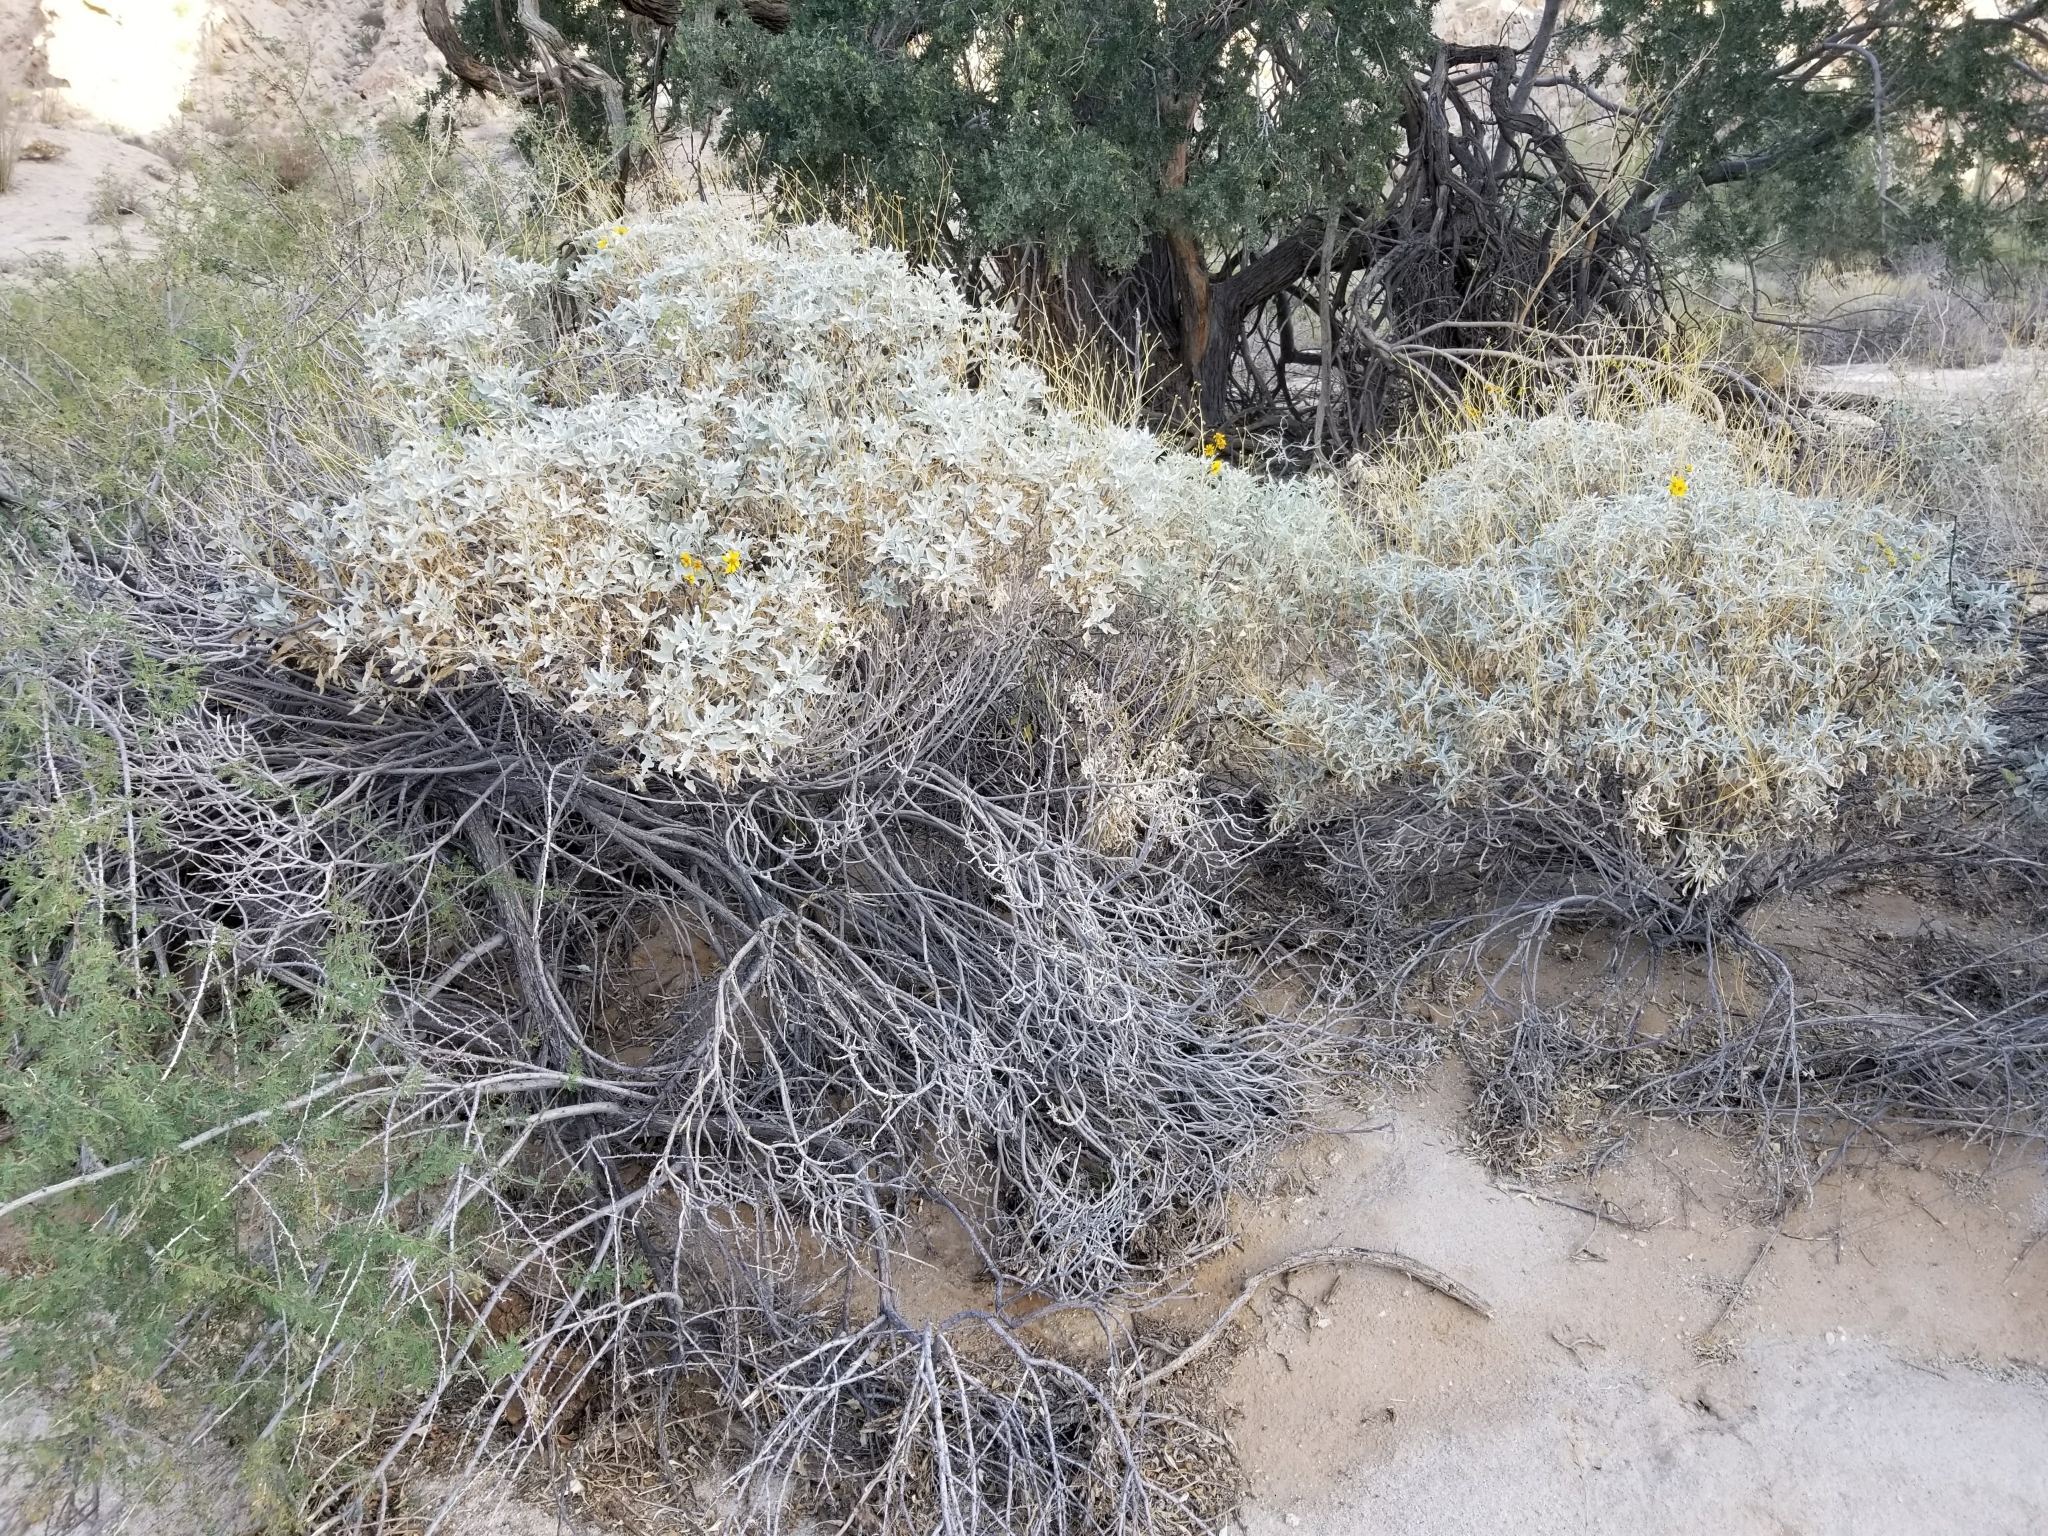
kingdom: Plantae
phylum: Tracheophyta
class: Magnoliopsida
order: Asterales
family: Asteraceae
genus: Encelia
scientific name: Encelia farinosa
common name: Brittlebush
